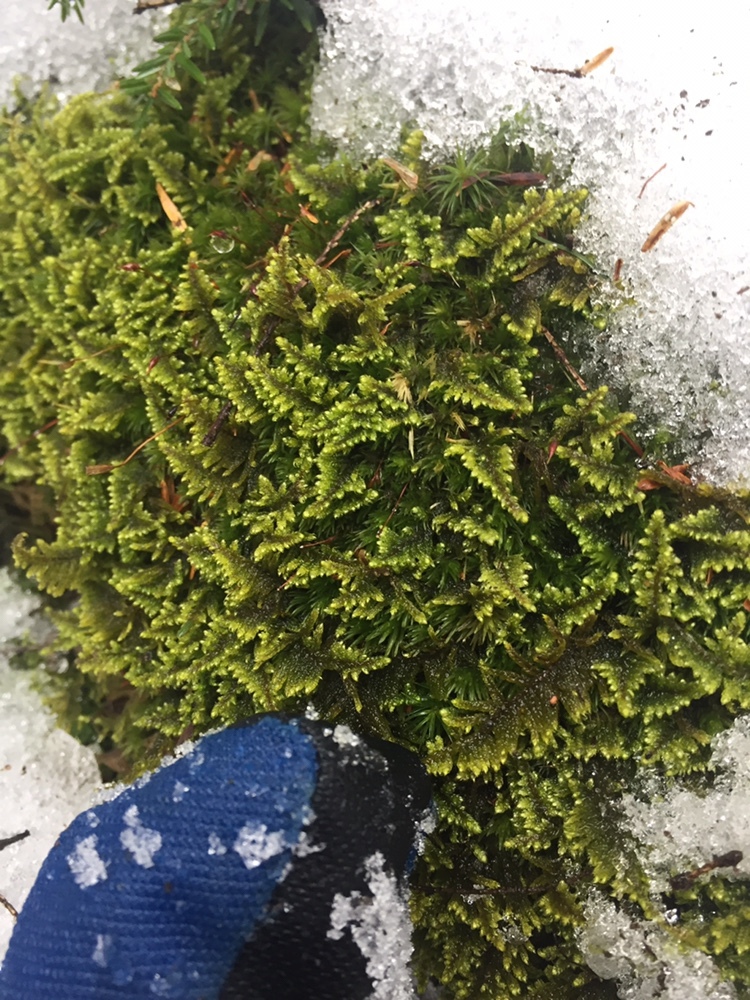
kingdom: Plantae
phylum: Bryophyta
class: Bryopsida
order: Hypnales
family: Callicladiaceae
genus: Callicladium
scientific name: Callicladium imponens
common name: Brocade moss
